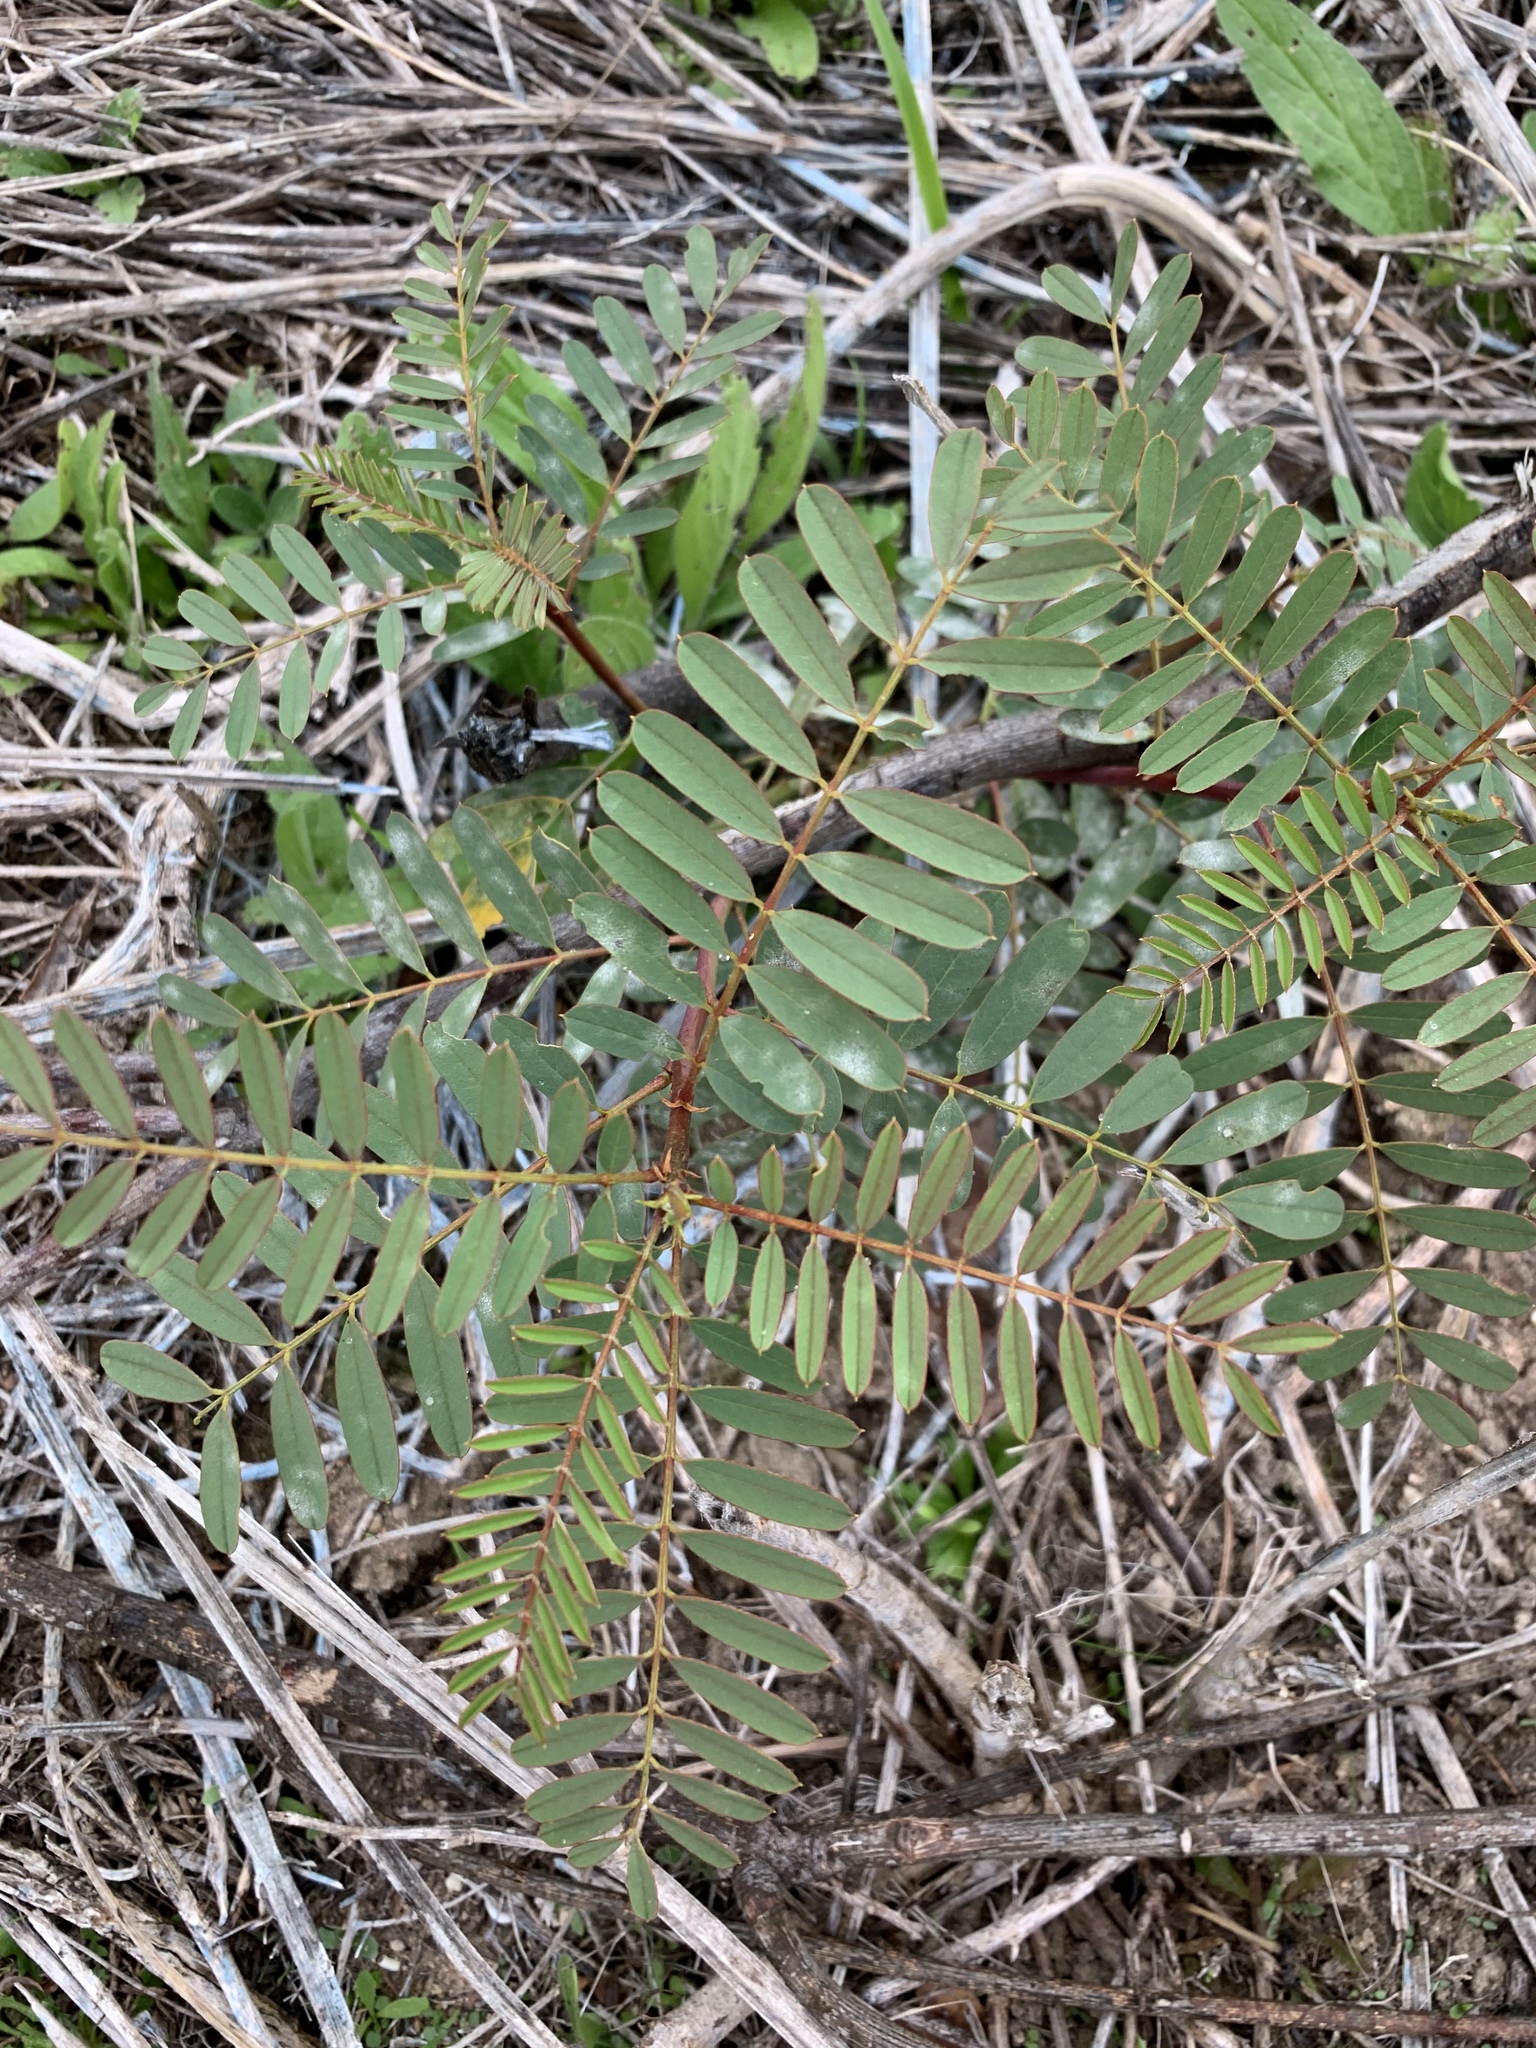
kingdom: Plantae
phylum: Tracheophyta
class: Magnoliopsida
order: Fabales
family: Fabaceae
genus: Sesbania
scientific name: Sesbania punicea
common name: Rattlebox
